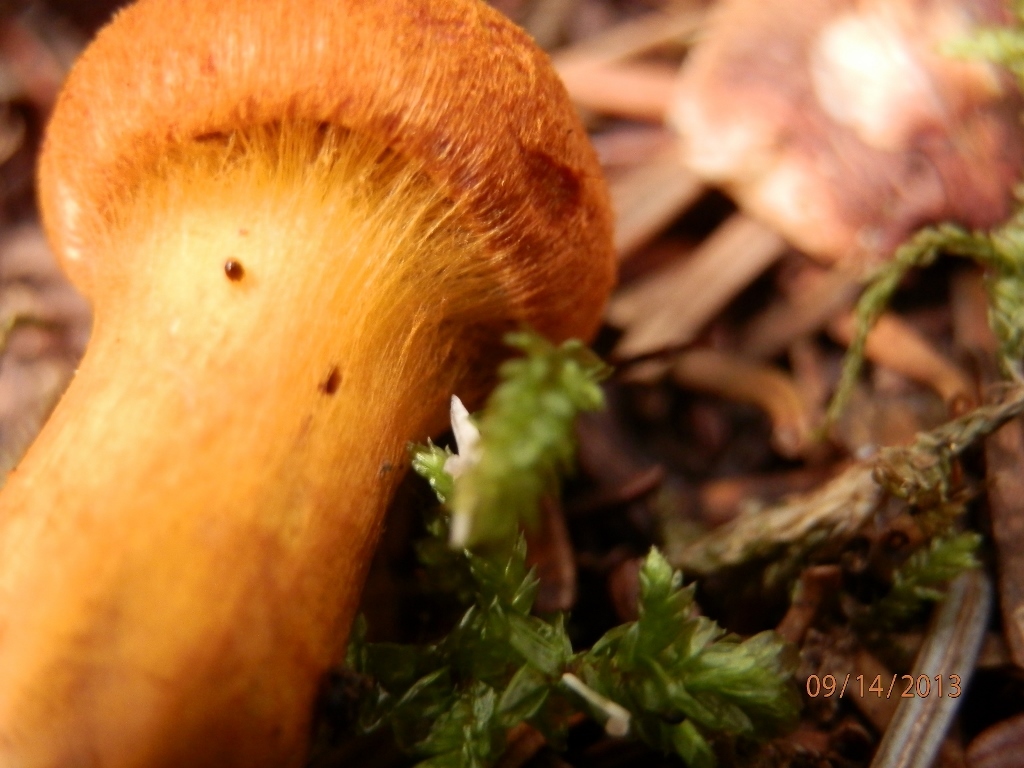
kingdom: Fungi
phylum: Basidiomycota
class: Agaricomycetes
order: Agaricales
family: Cortinariaceae
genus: Cortinarius
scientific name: Cortinarius cinnamomeus
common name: Cinnamon webcap
